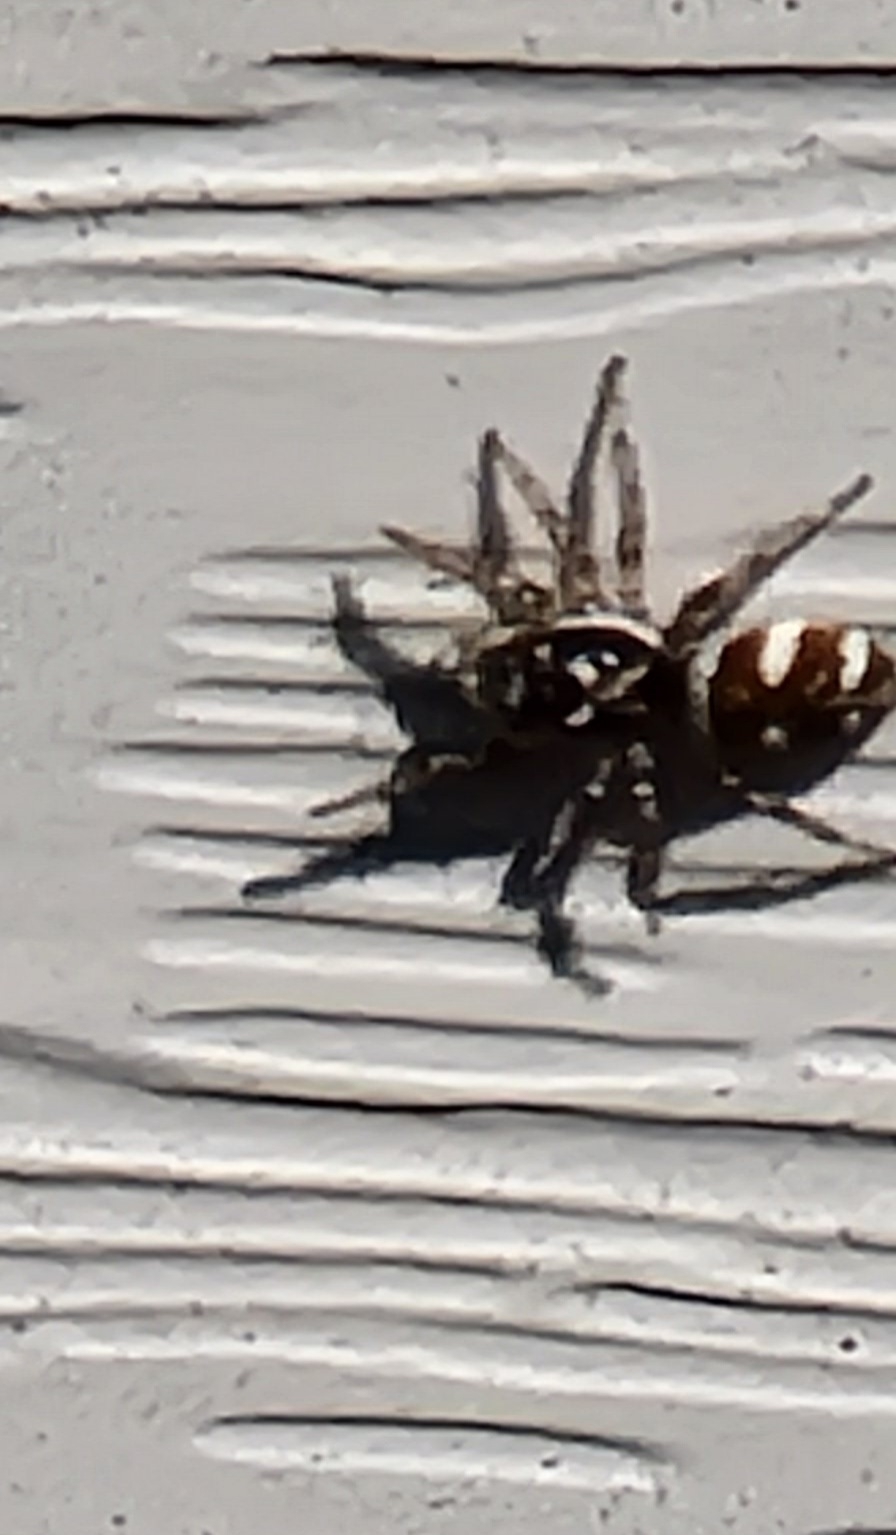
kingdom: Animalia
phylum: Arthropoda
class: Arachnida
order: Araneae
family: Salticidae
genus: Salticus
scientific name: Salticus scenicus
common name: Zebra jumper
